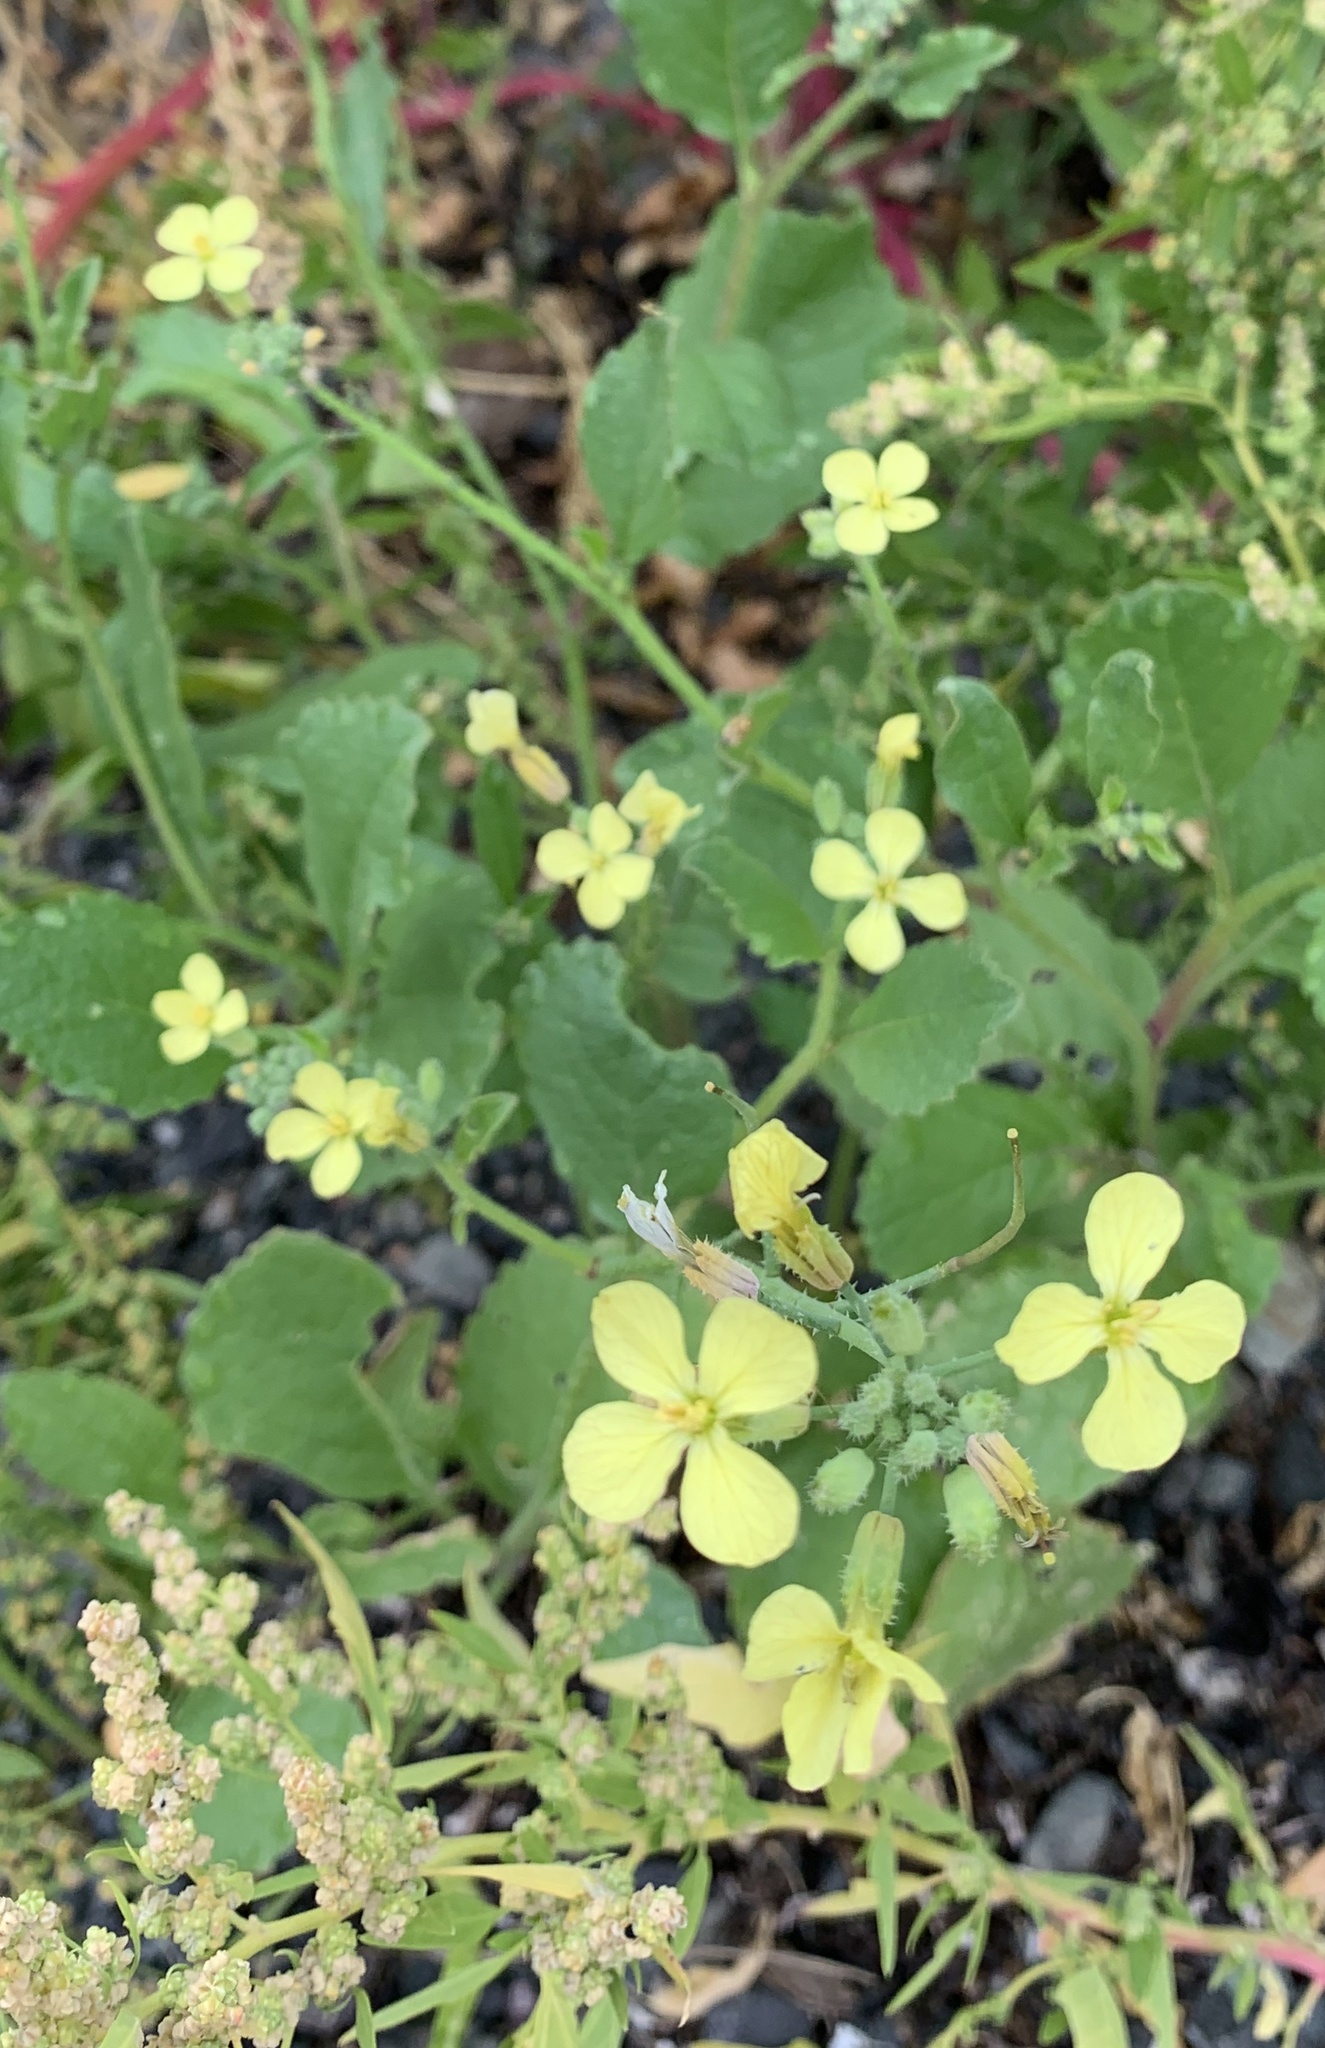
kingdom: Plantae
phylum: Tracheophyta
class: Magnoliopsida
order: Brassicales
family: Brassicaceae
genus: Raphanus
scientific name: Raphanus raphanistrum
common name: Wild radish
